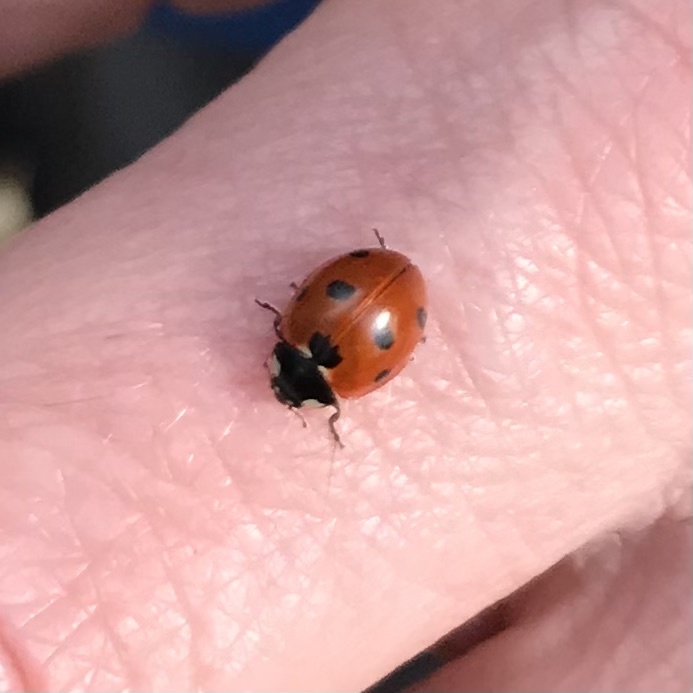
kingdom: Animalia
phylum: Arthropoda
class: Insecta
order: Coleoptera
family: Coccinellidae
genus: Coccinella
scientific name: Coccinella septempunctata
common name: Sevenspotted lady beetle
